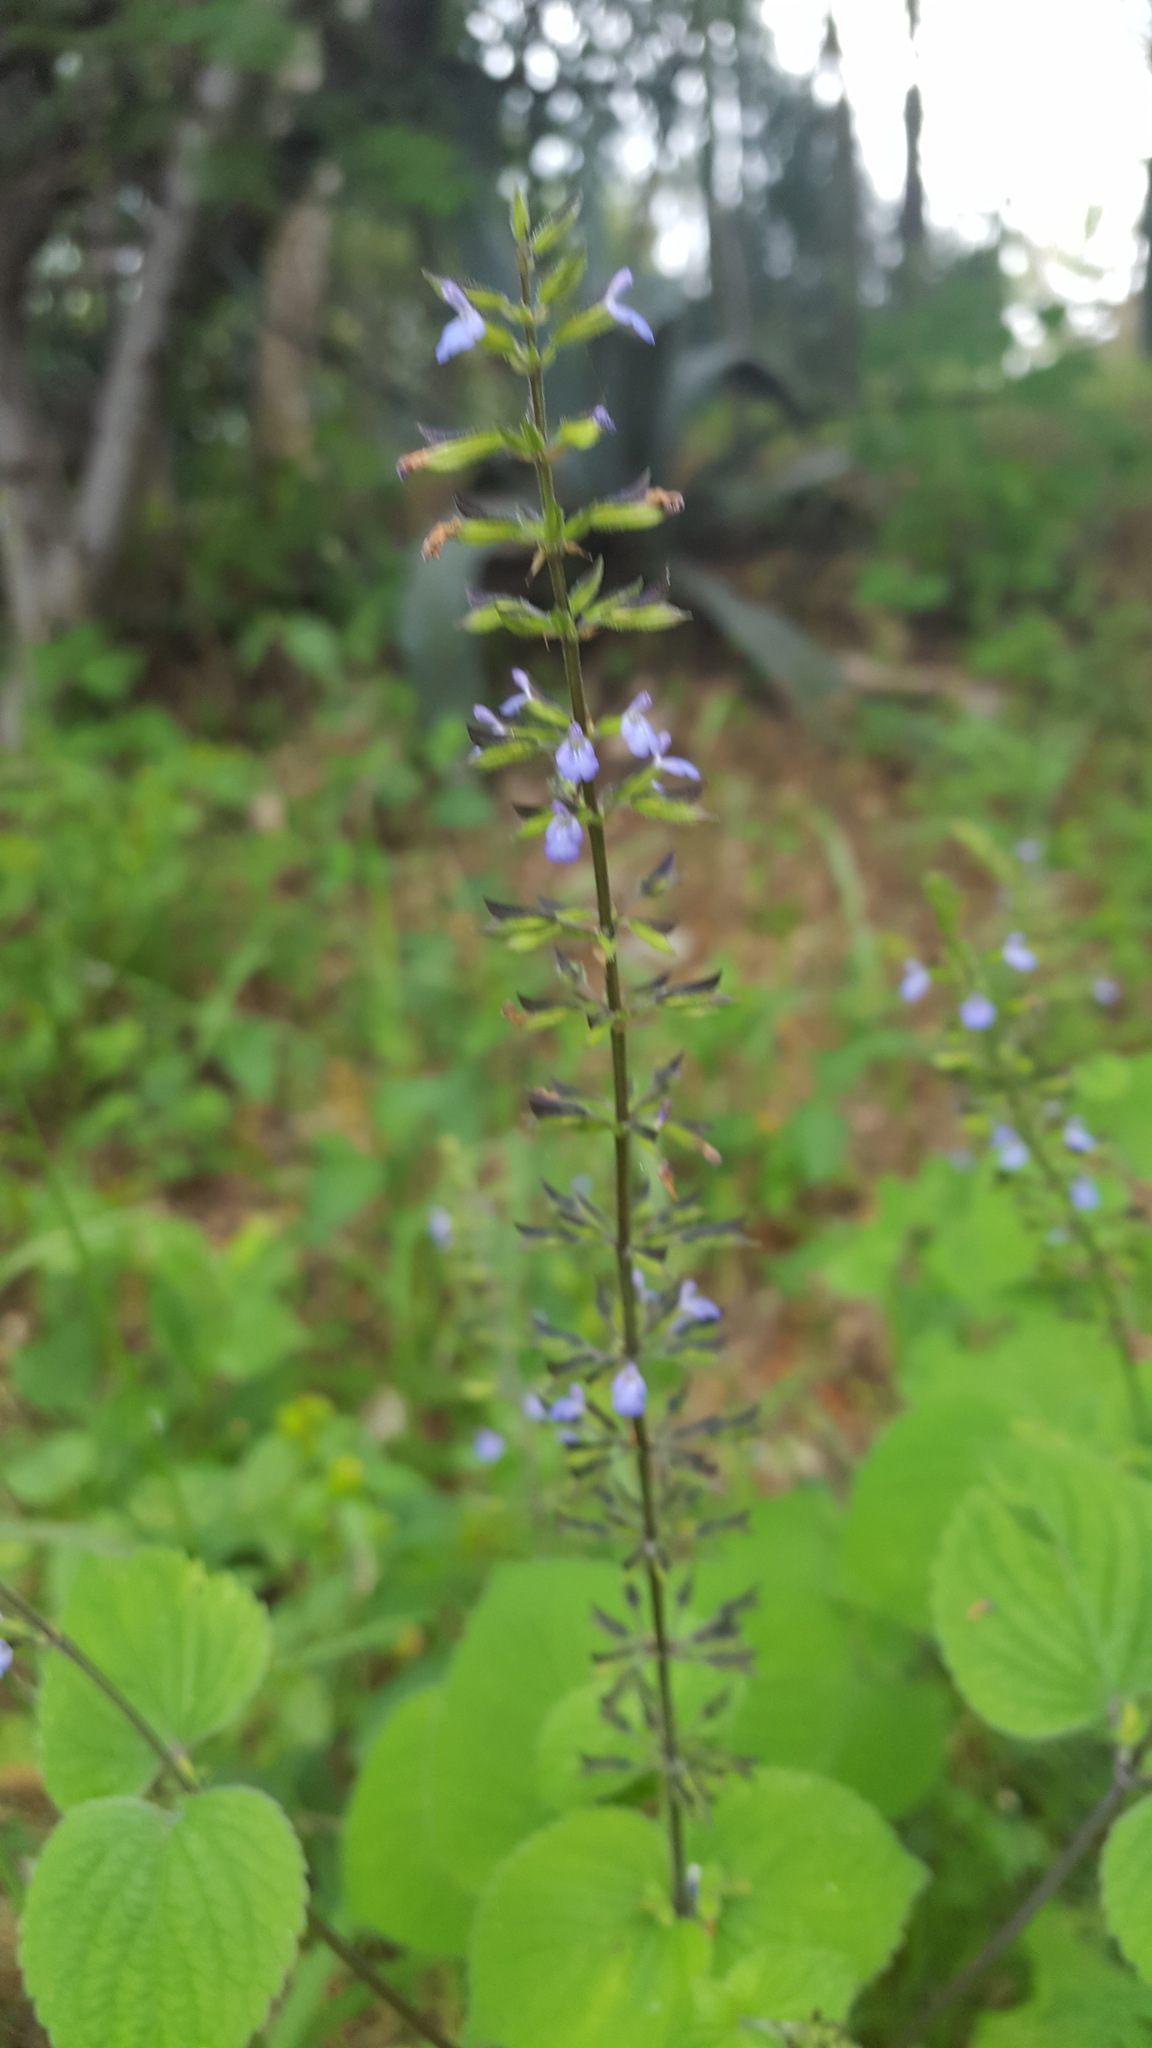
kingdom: Plantae
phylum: Tracheophyta
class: Magnoliopsida
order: Lamiales
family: Lamiaceae
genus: Salvia
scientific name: Salvia tiliifolia
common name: Lindenleaf sage
